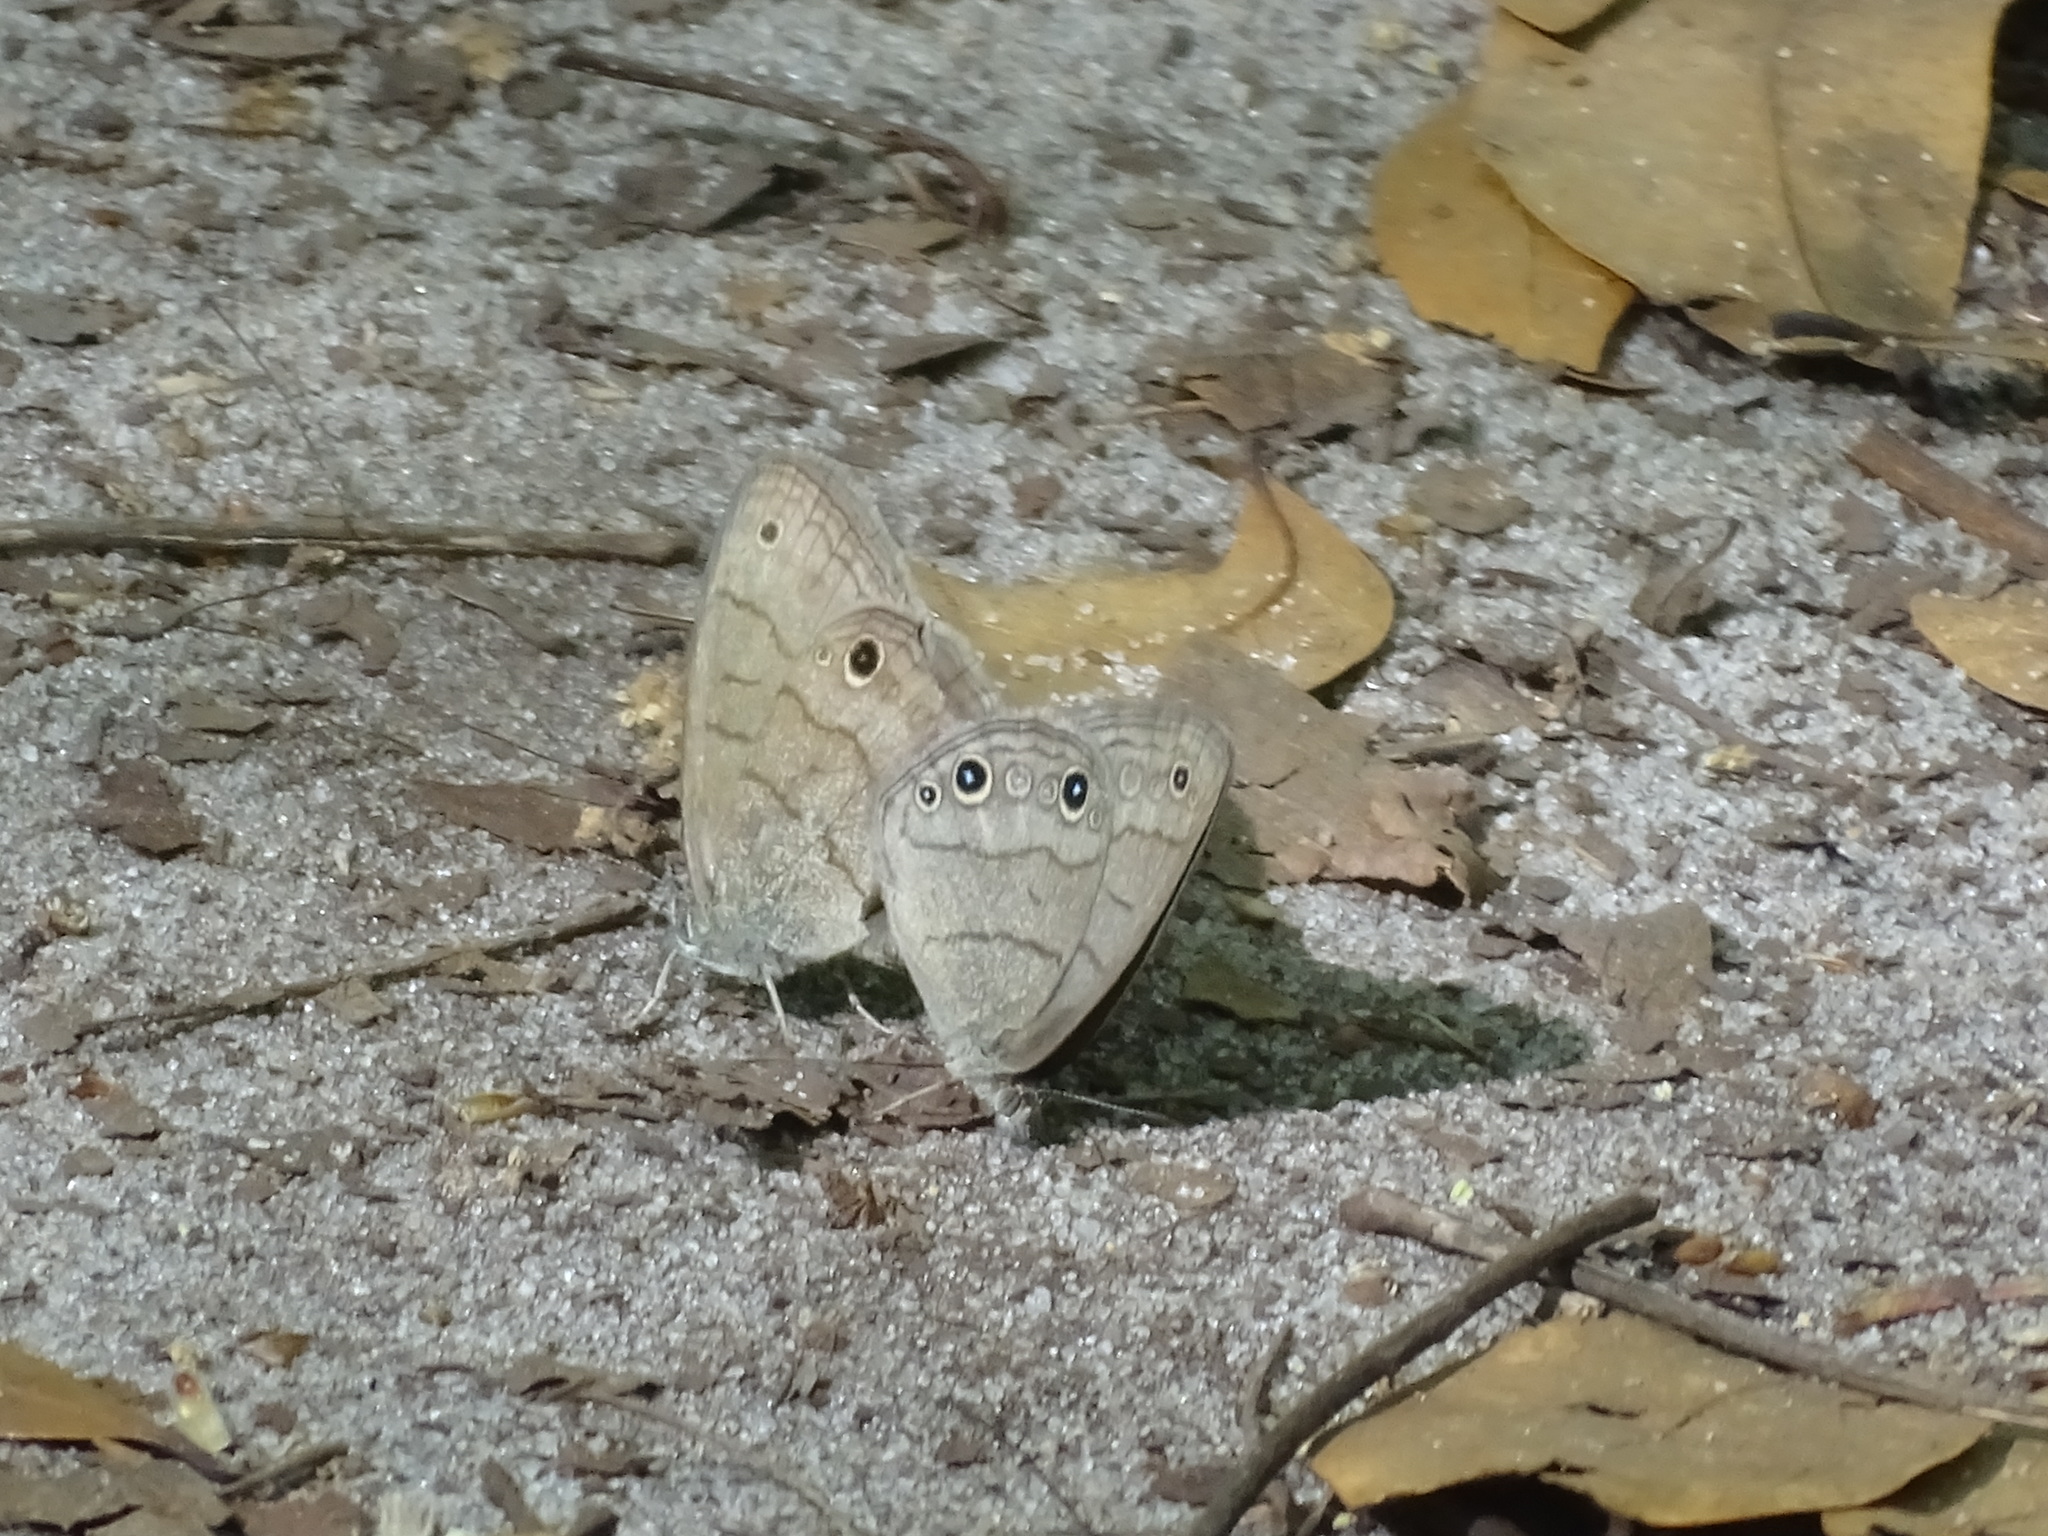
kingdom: Animalia
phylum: Arthropoda
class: Insecta
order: Lepidoptera
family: Nymphalidae
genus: Hermeuptychia
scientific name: Hermeuptychia hermes
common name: Hermes satyr
